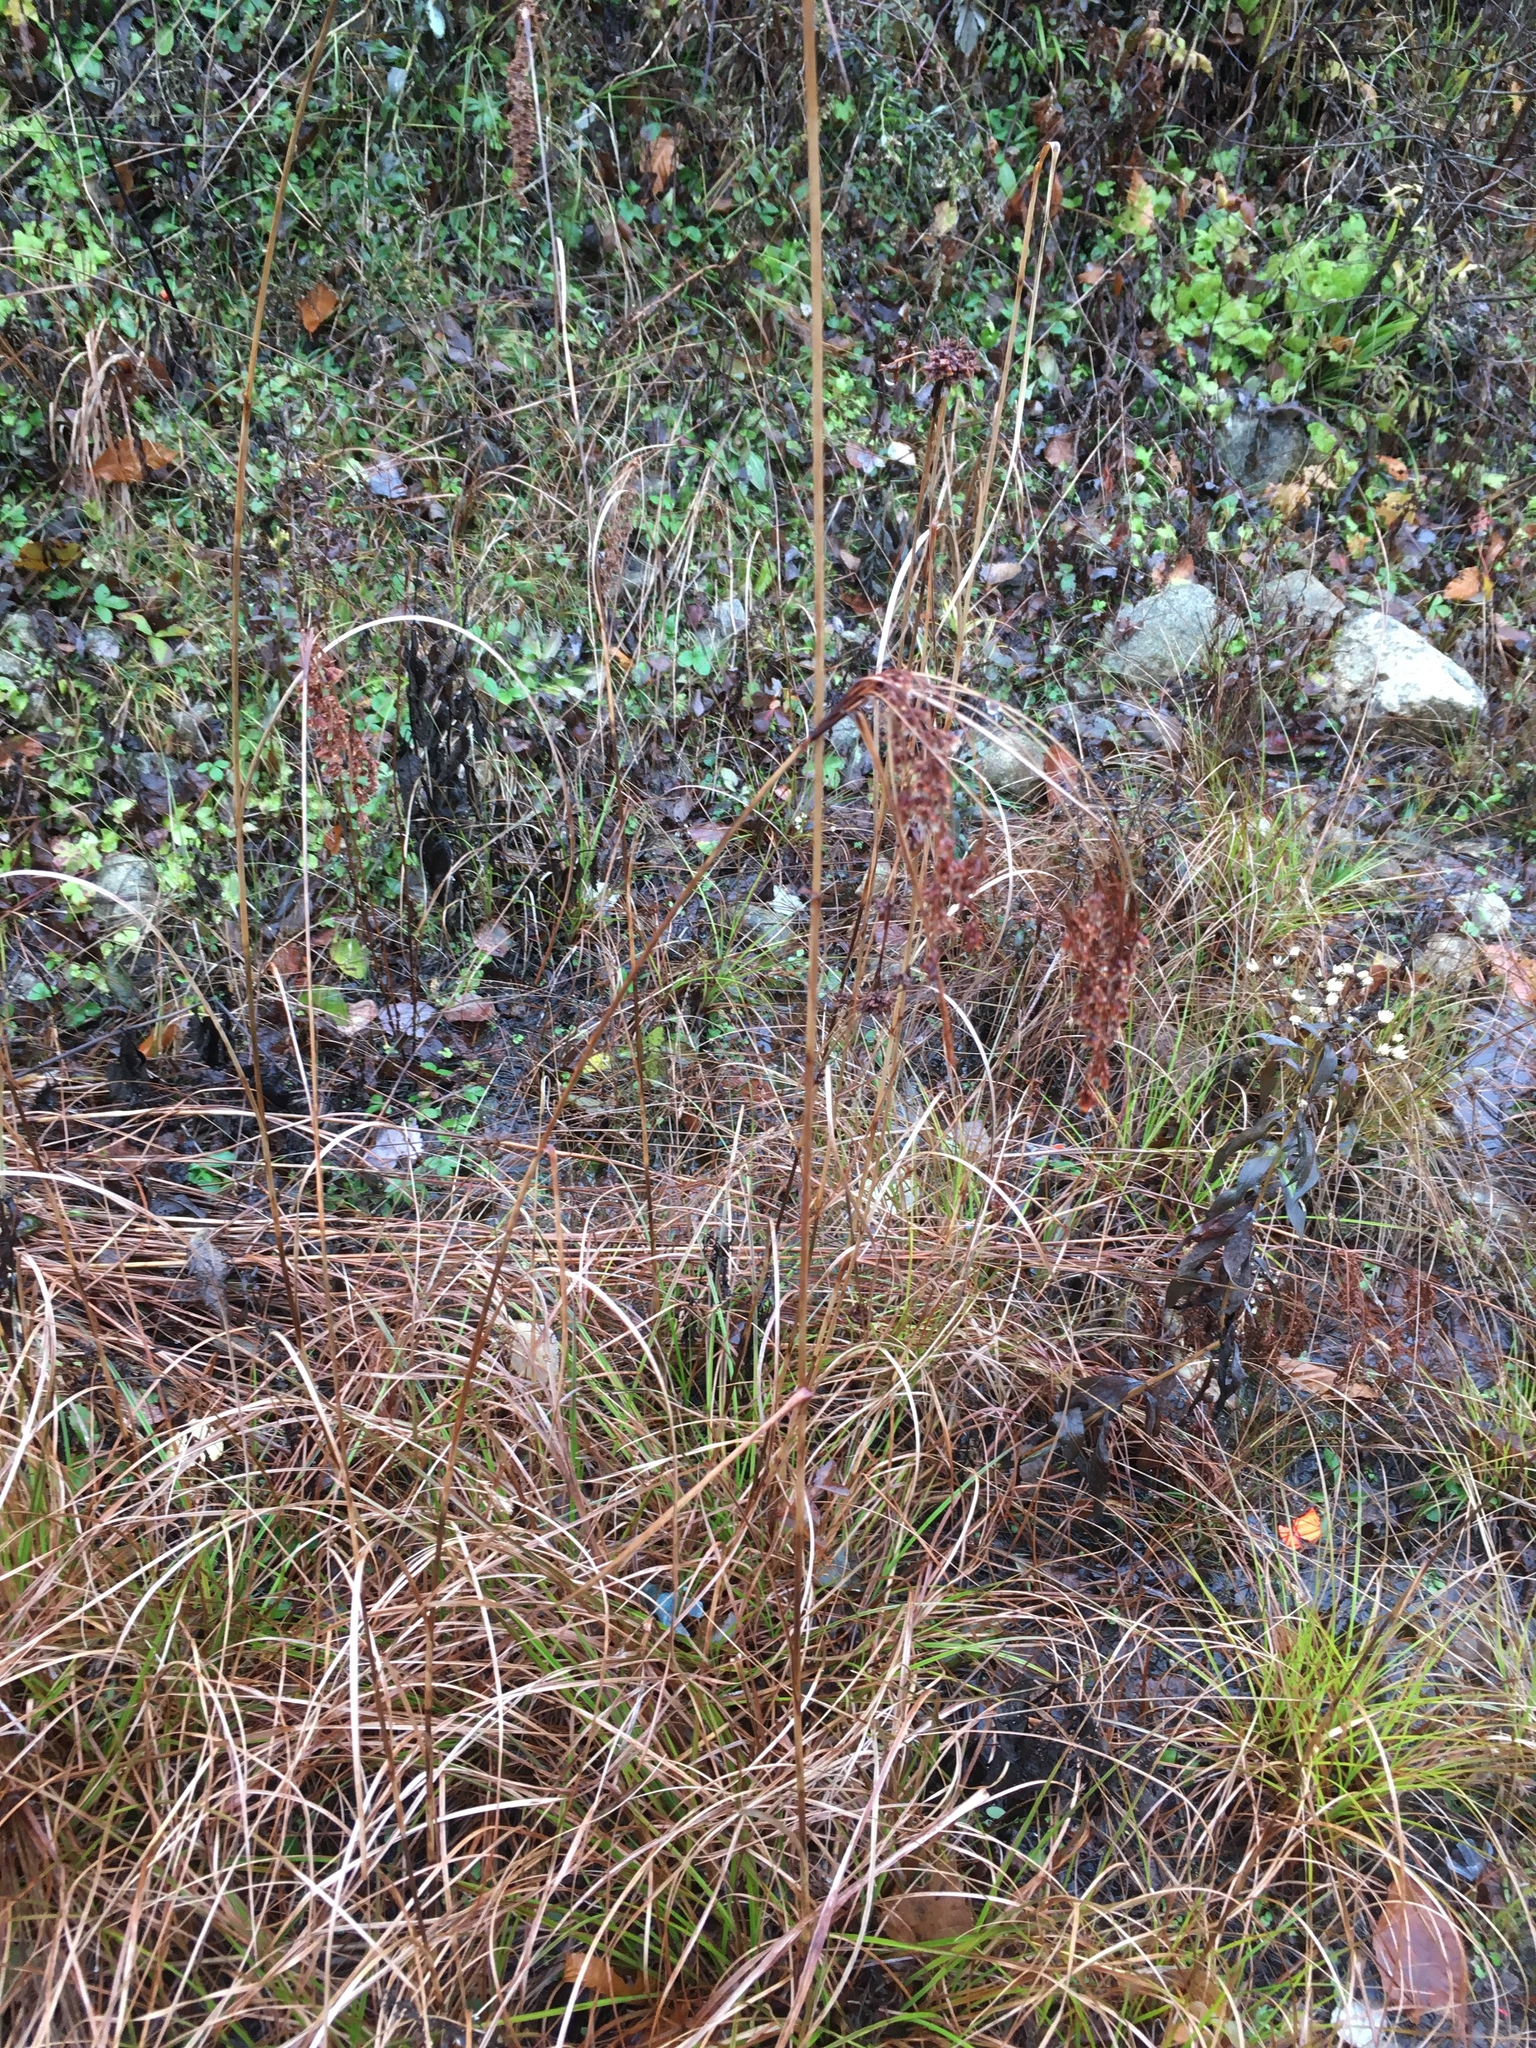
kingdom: Plantae
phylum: Tracheophyta
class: Liliopsida
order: Poales
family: Cyperaceae
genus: Scirpus
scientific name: Scirpus cyperinus
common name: Black-sheathed bulrush
